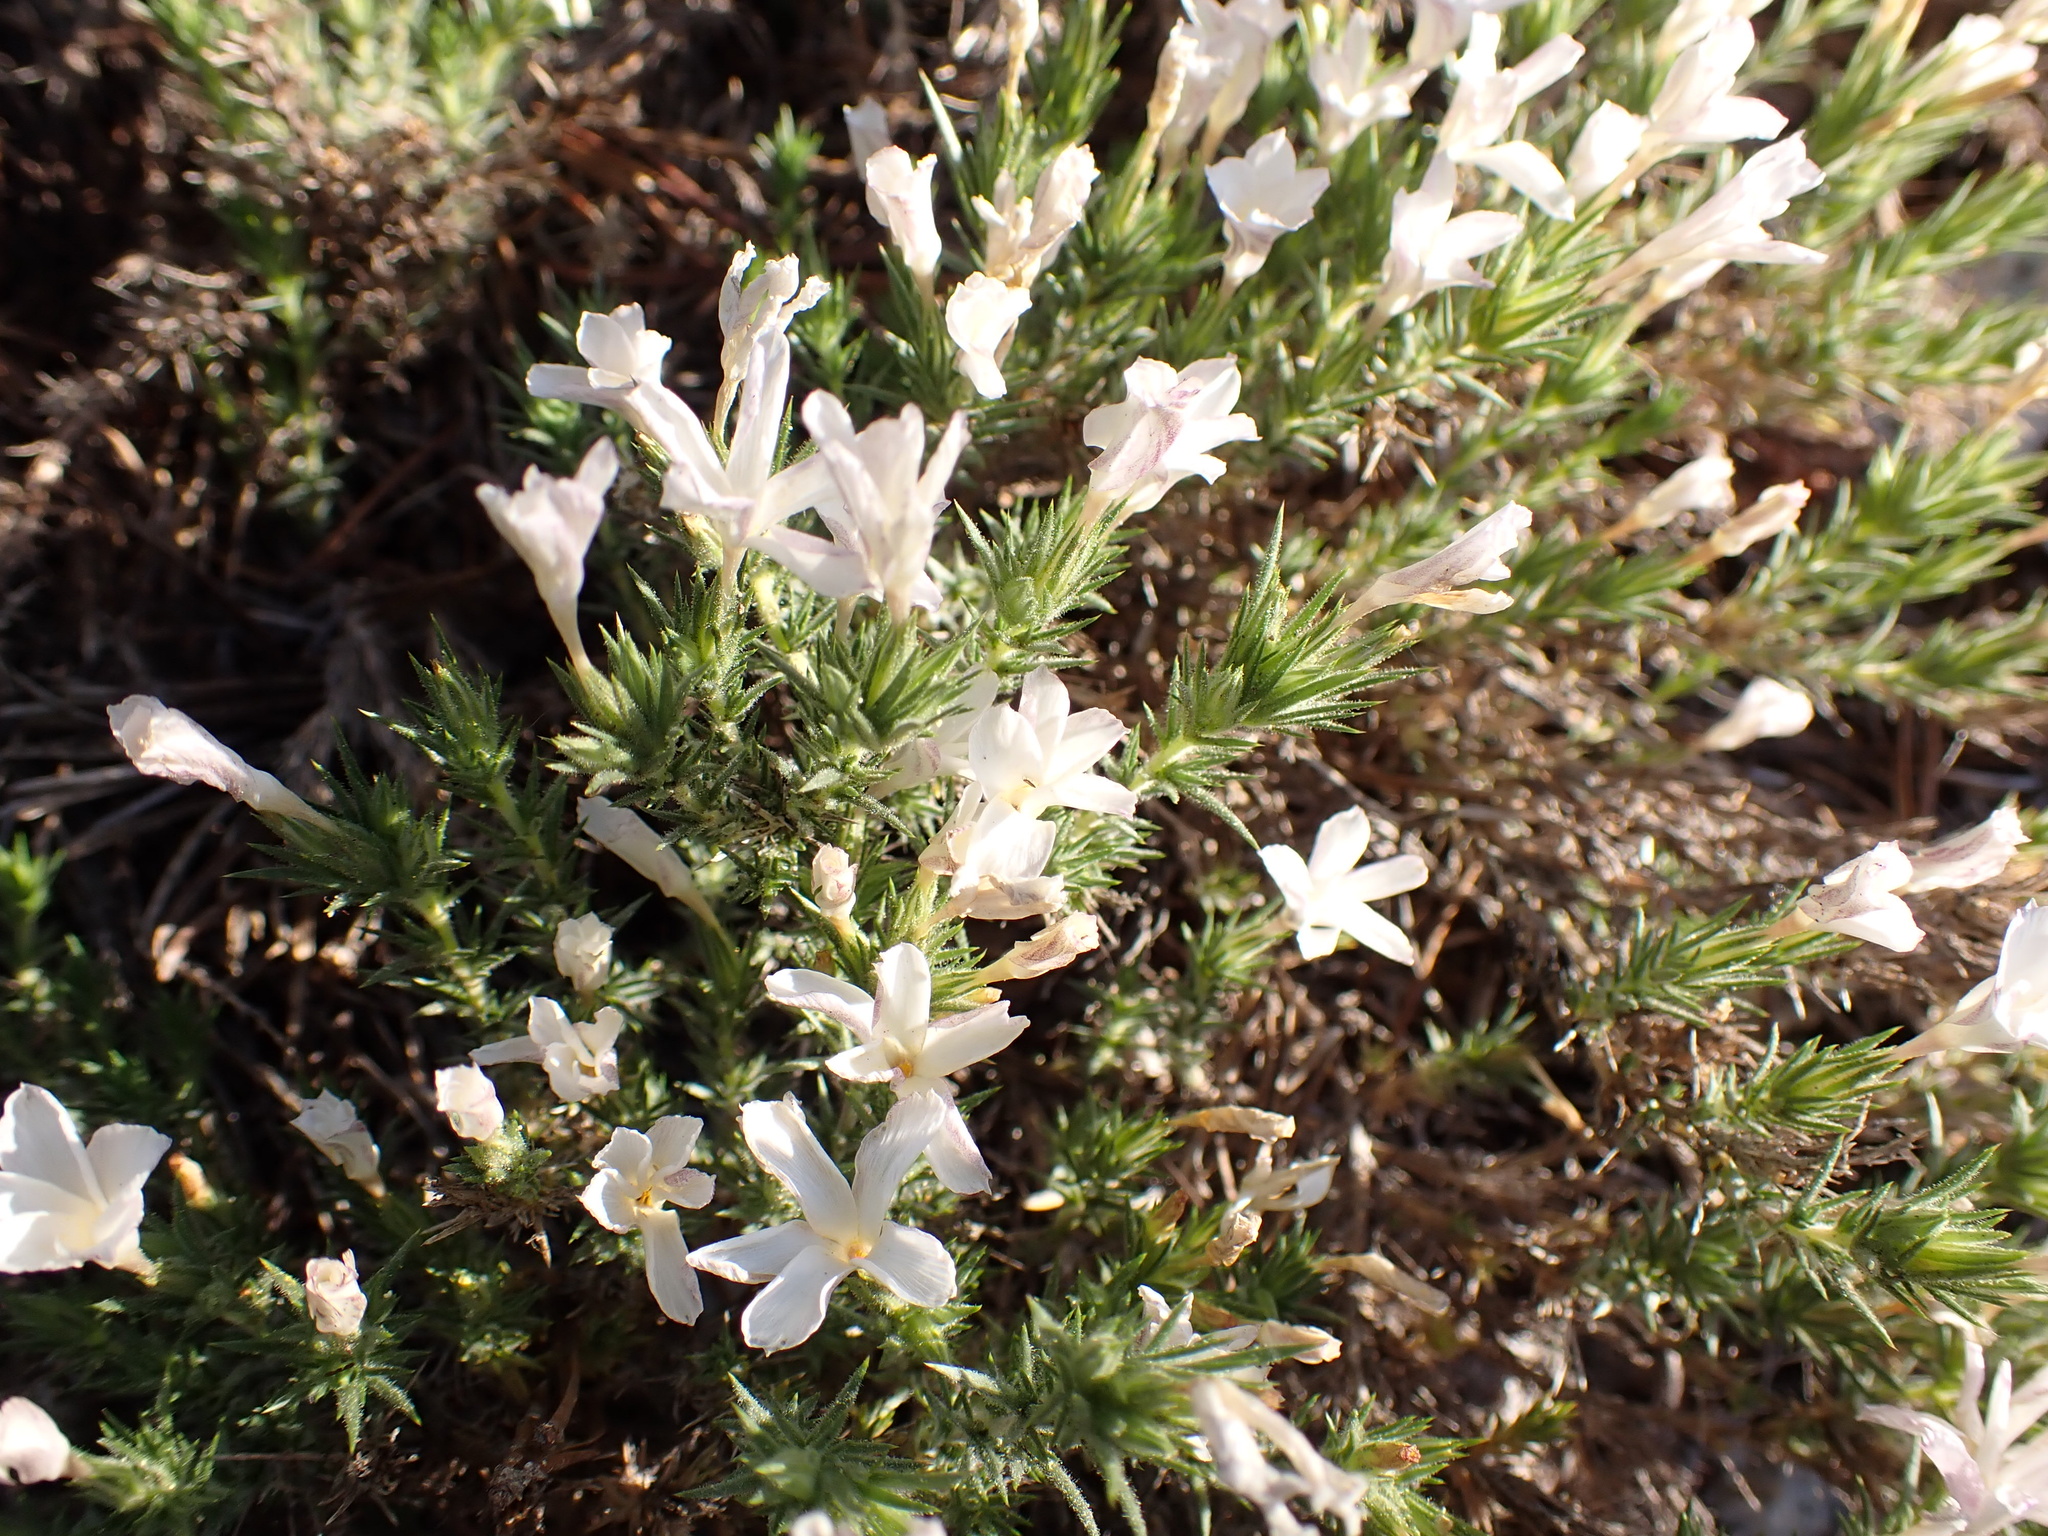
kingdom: Plantae
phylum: Tracheophyta
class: Magnoliopsida
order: Ericales
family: Polemoniaceae
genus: Linanthus
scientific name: Linanthus pungens
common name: Granite prickly phlox
